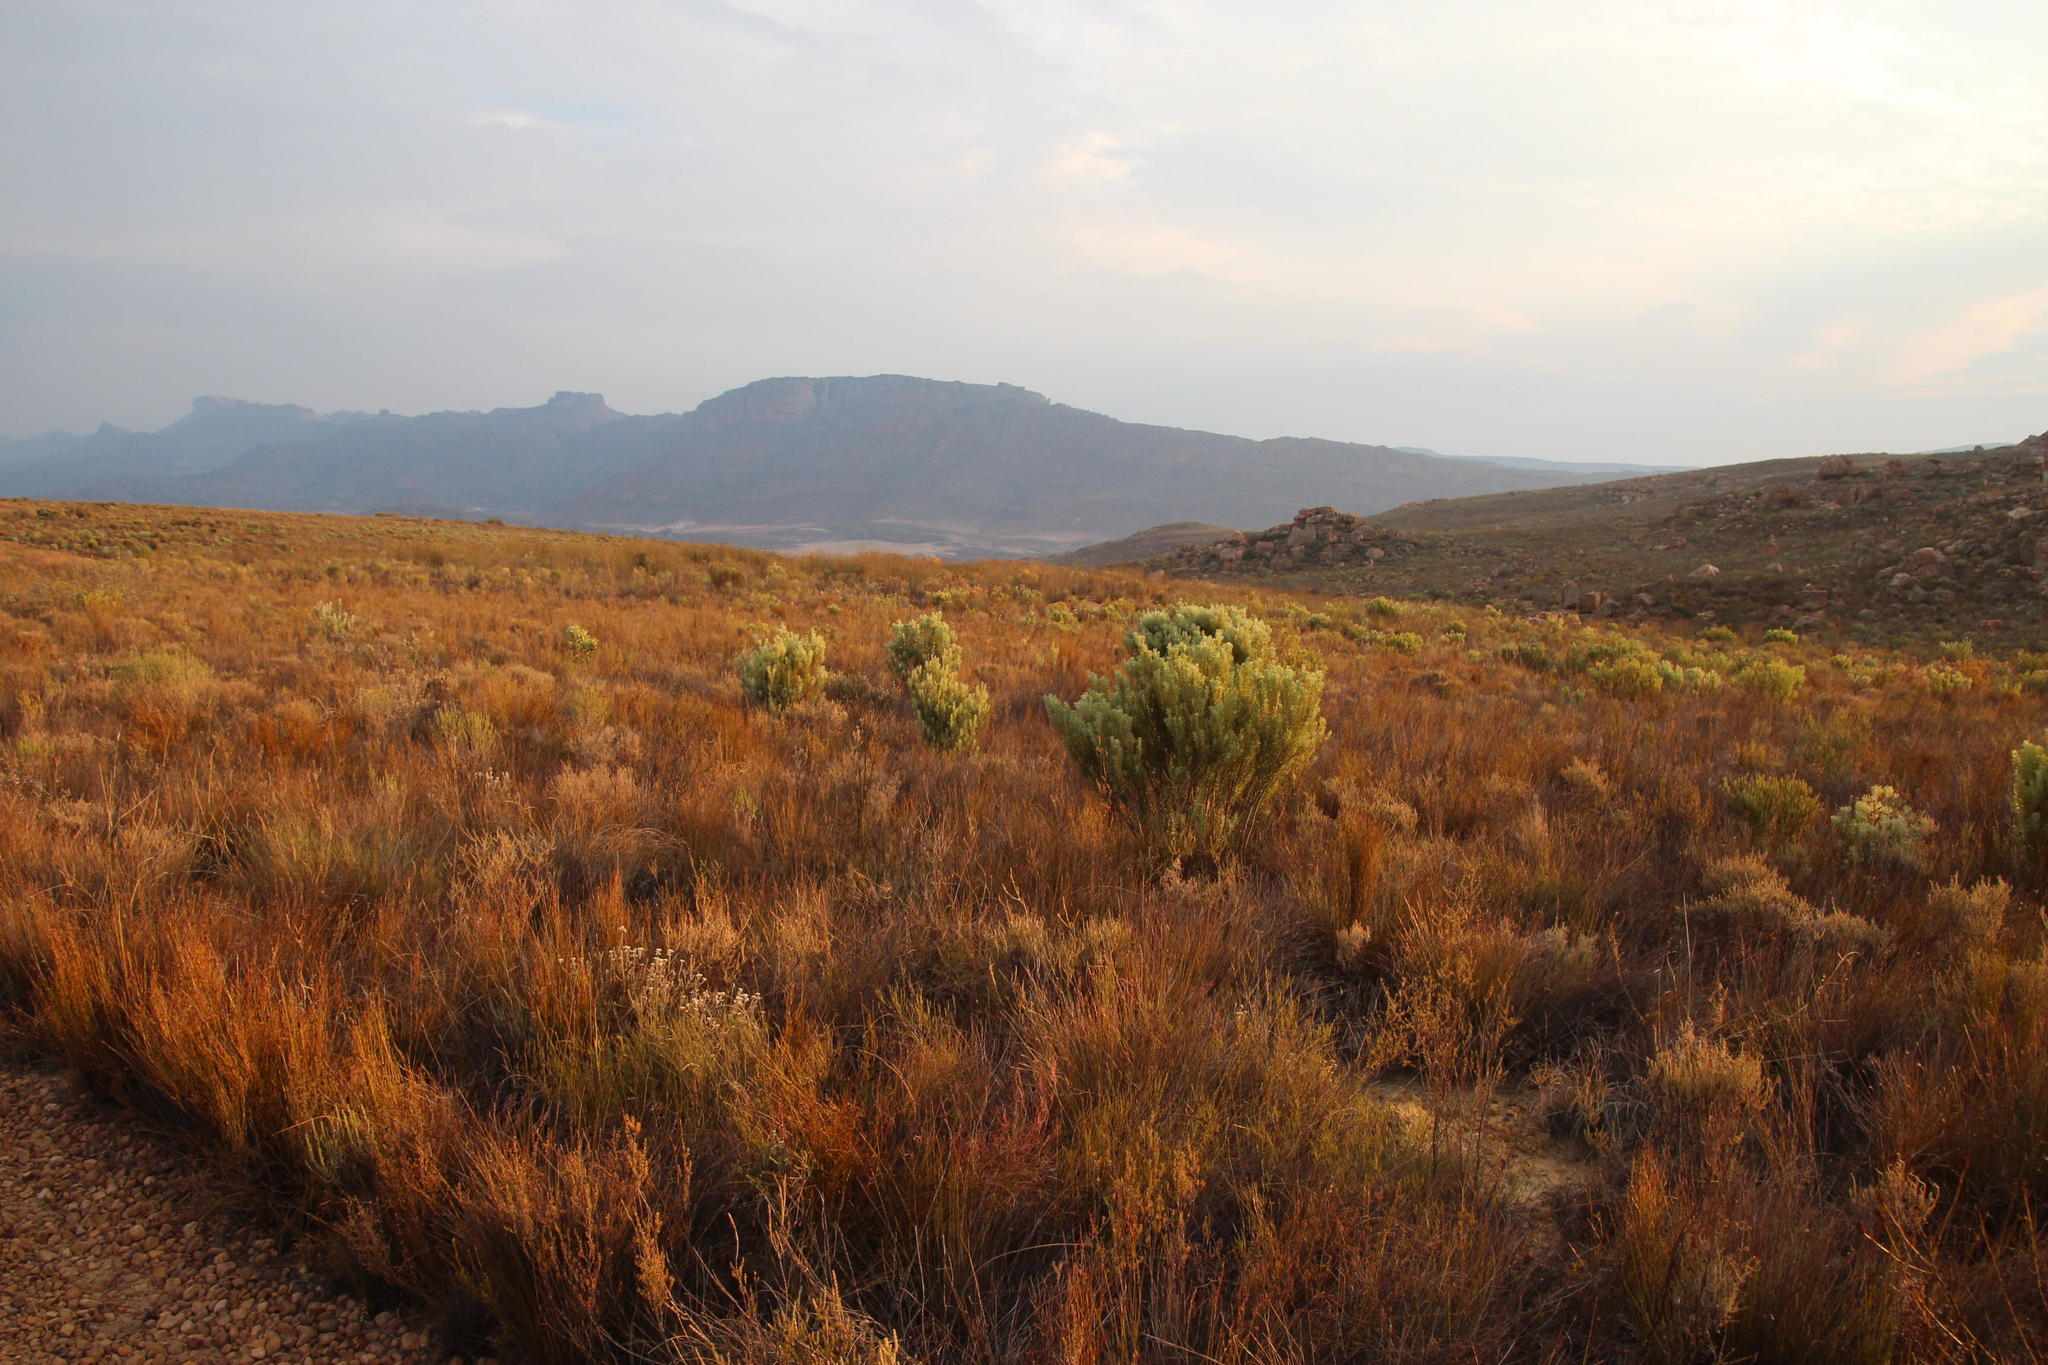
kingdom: Plantae
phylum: Tracheophyta
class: Magnoliopsida
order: Proteales
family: Proteaceae
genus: Leucadendron
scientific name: Leucadendron pubescens
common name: Grey conebush
